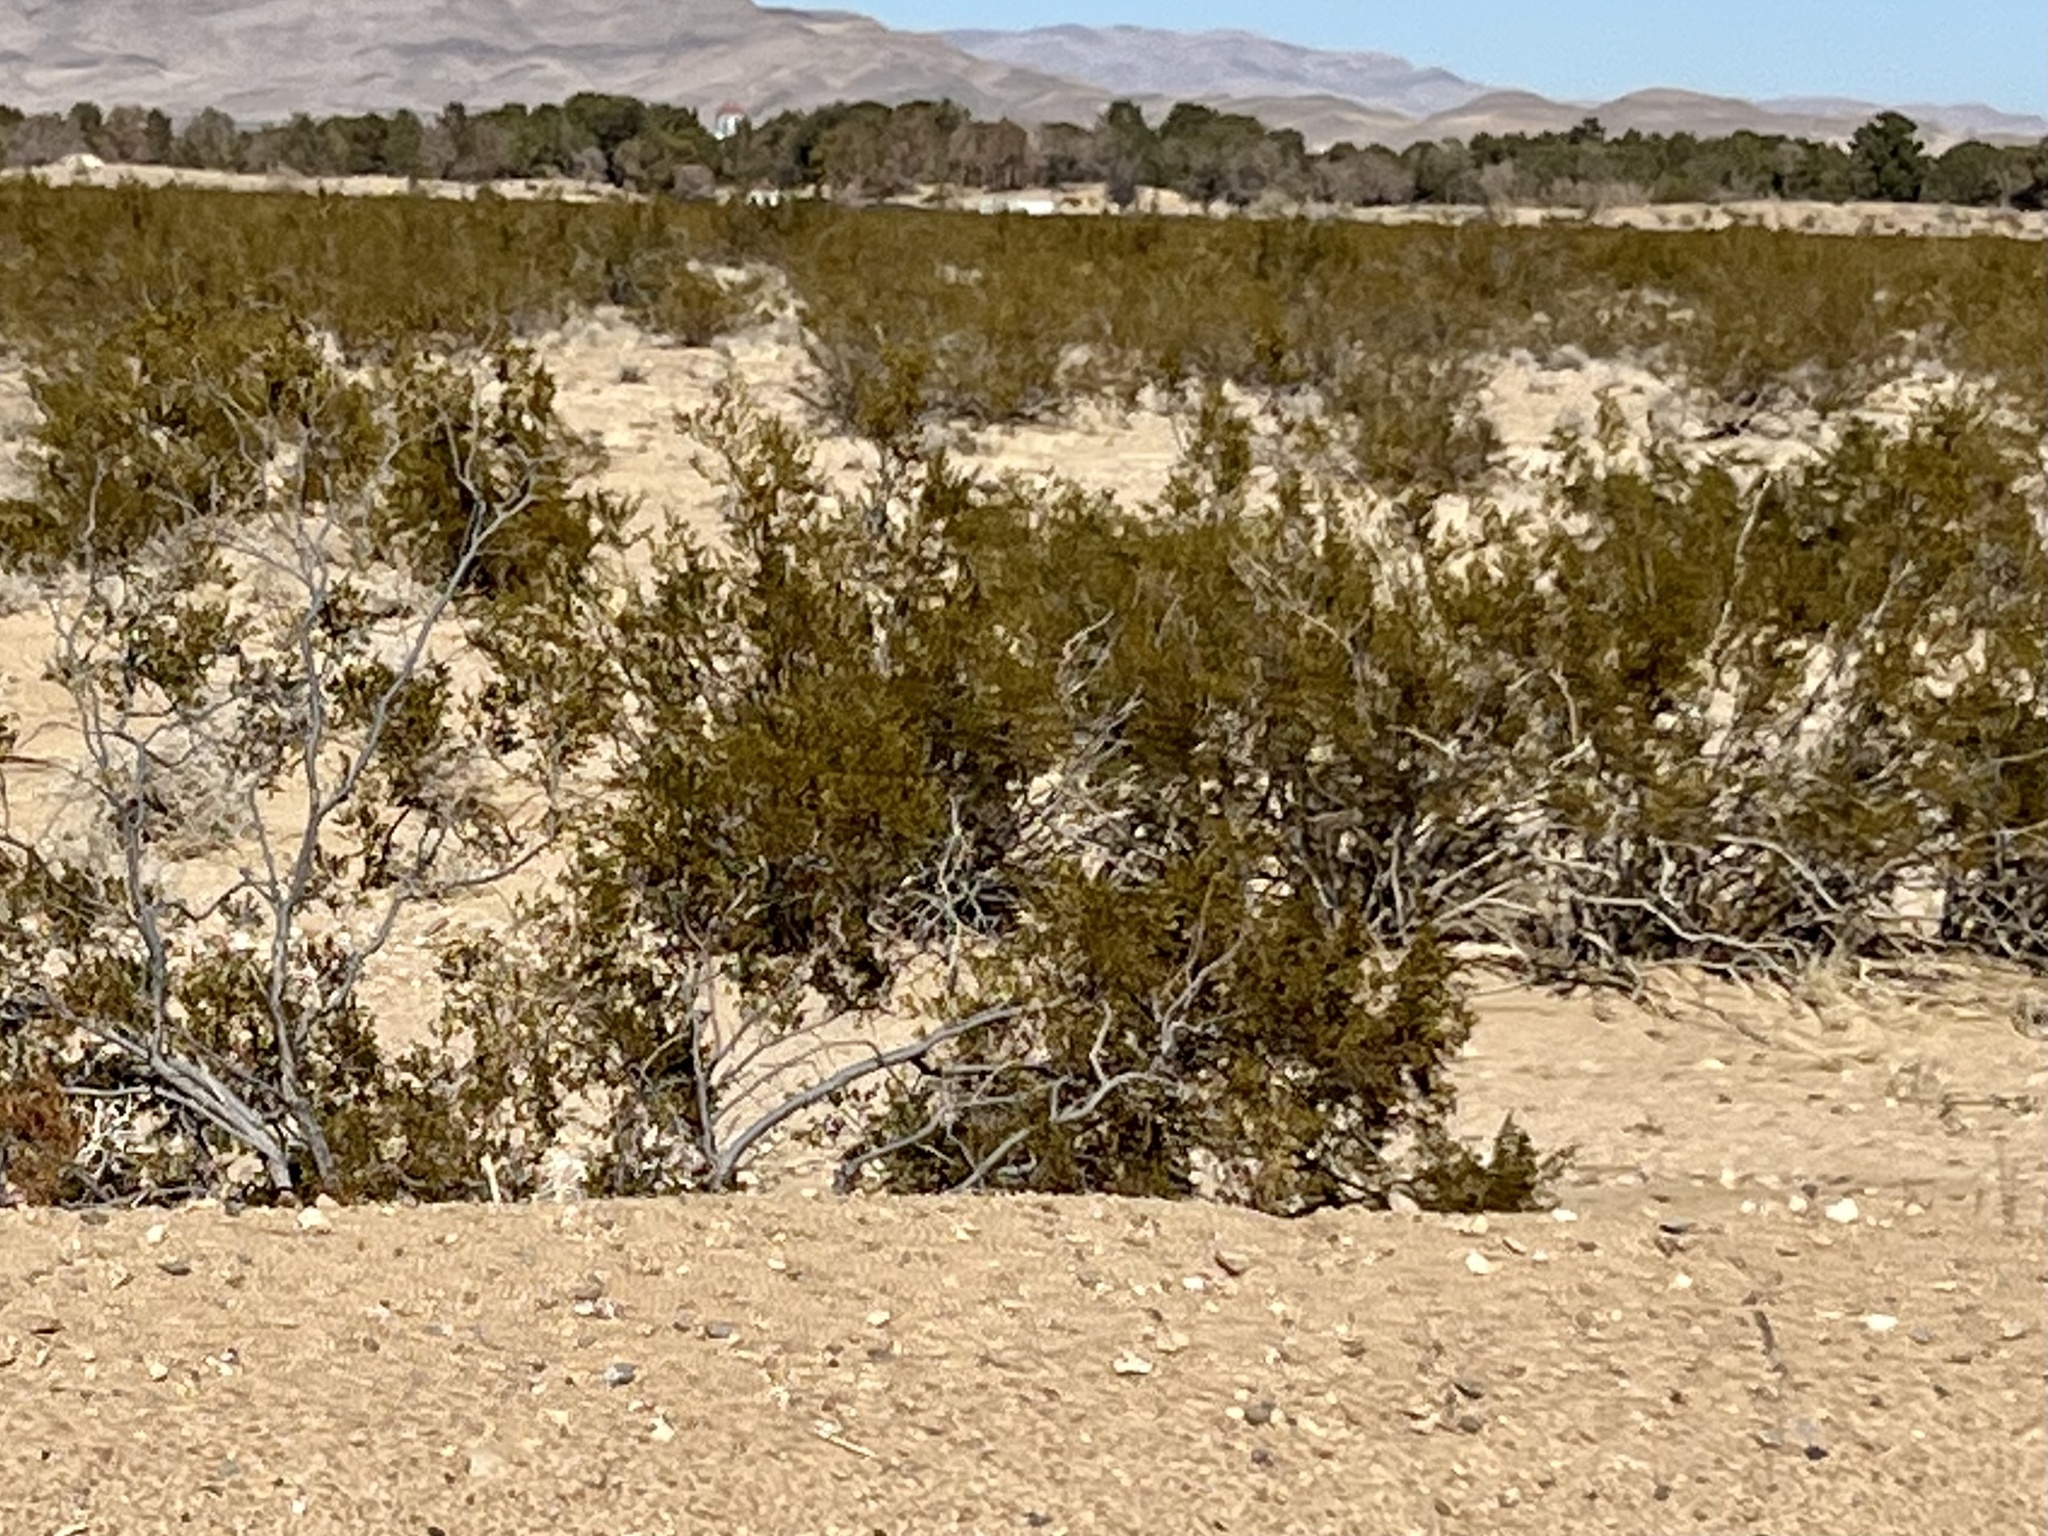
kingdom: Plantae
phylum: Tracheophyta
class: Magnoliopsida
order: Zygophyllales
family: Zygophyllaceae
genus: Larrea
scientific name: Larrea tridentata
